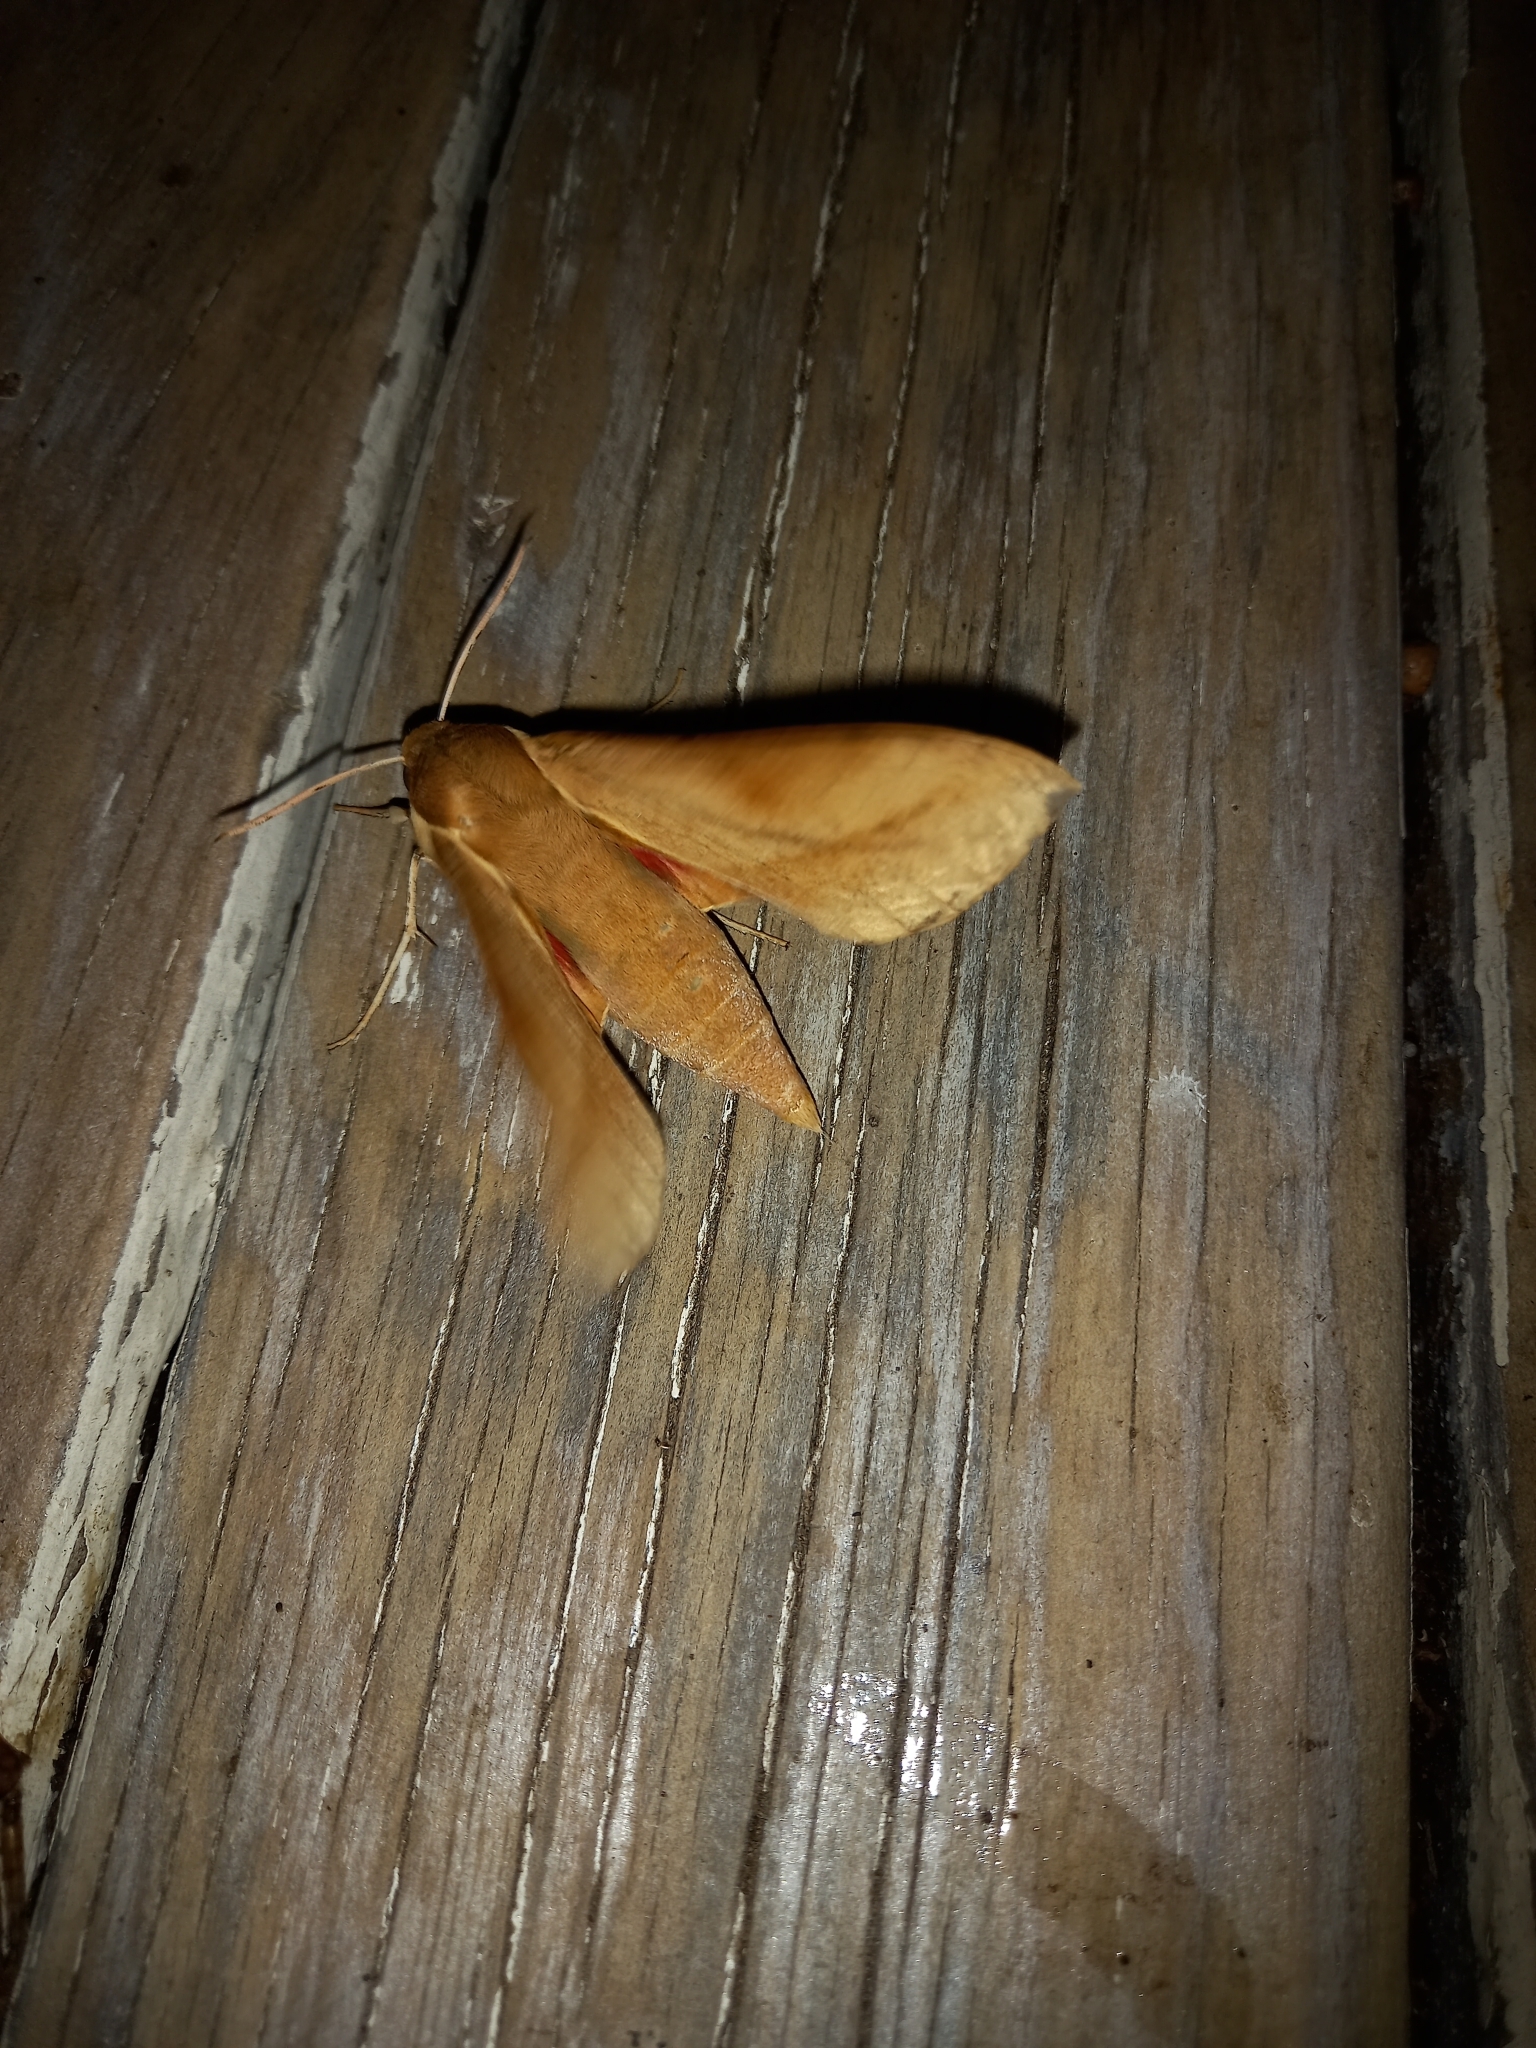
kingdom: Animalia
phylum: Arthropoda
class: Insecta
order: Lepidoptera
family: Sphingidae
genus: Theretra
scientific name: Theretra capensis
